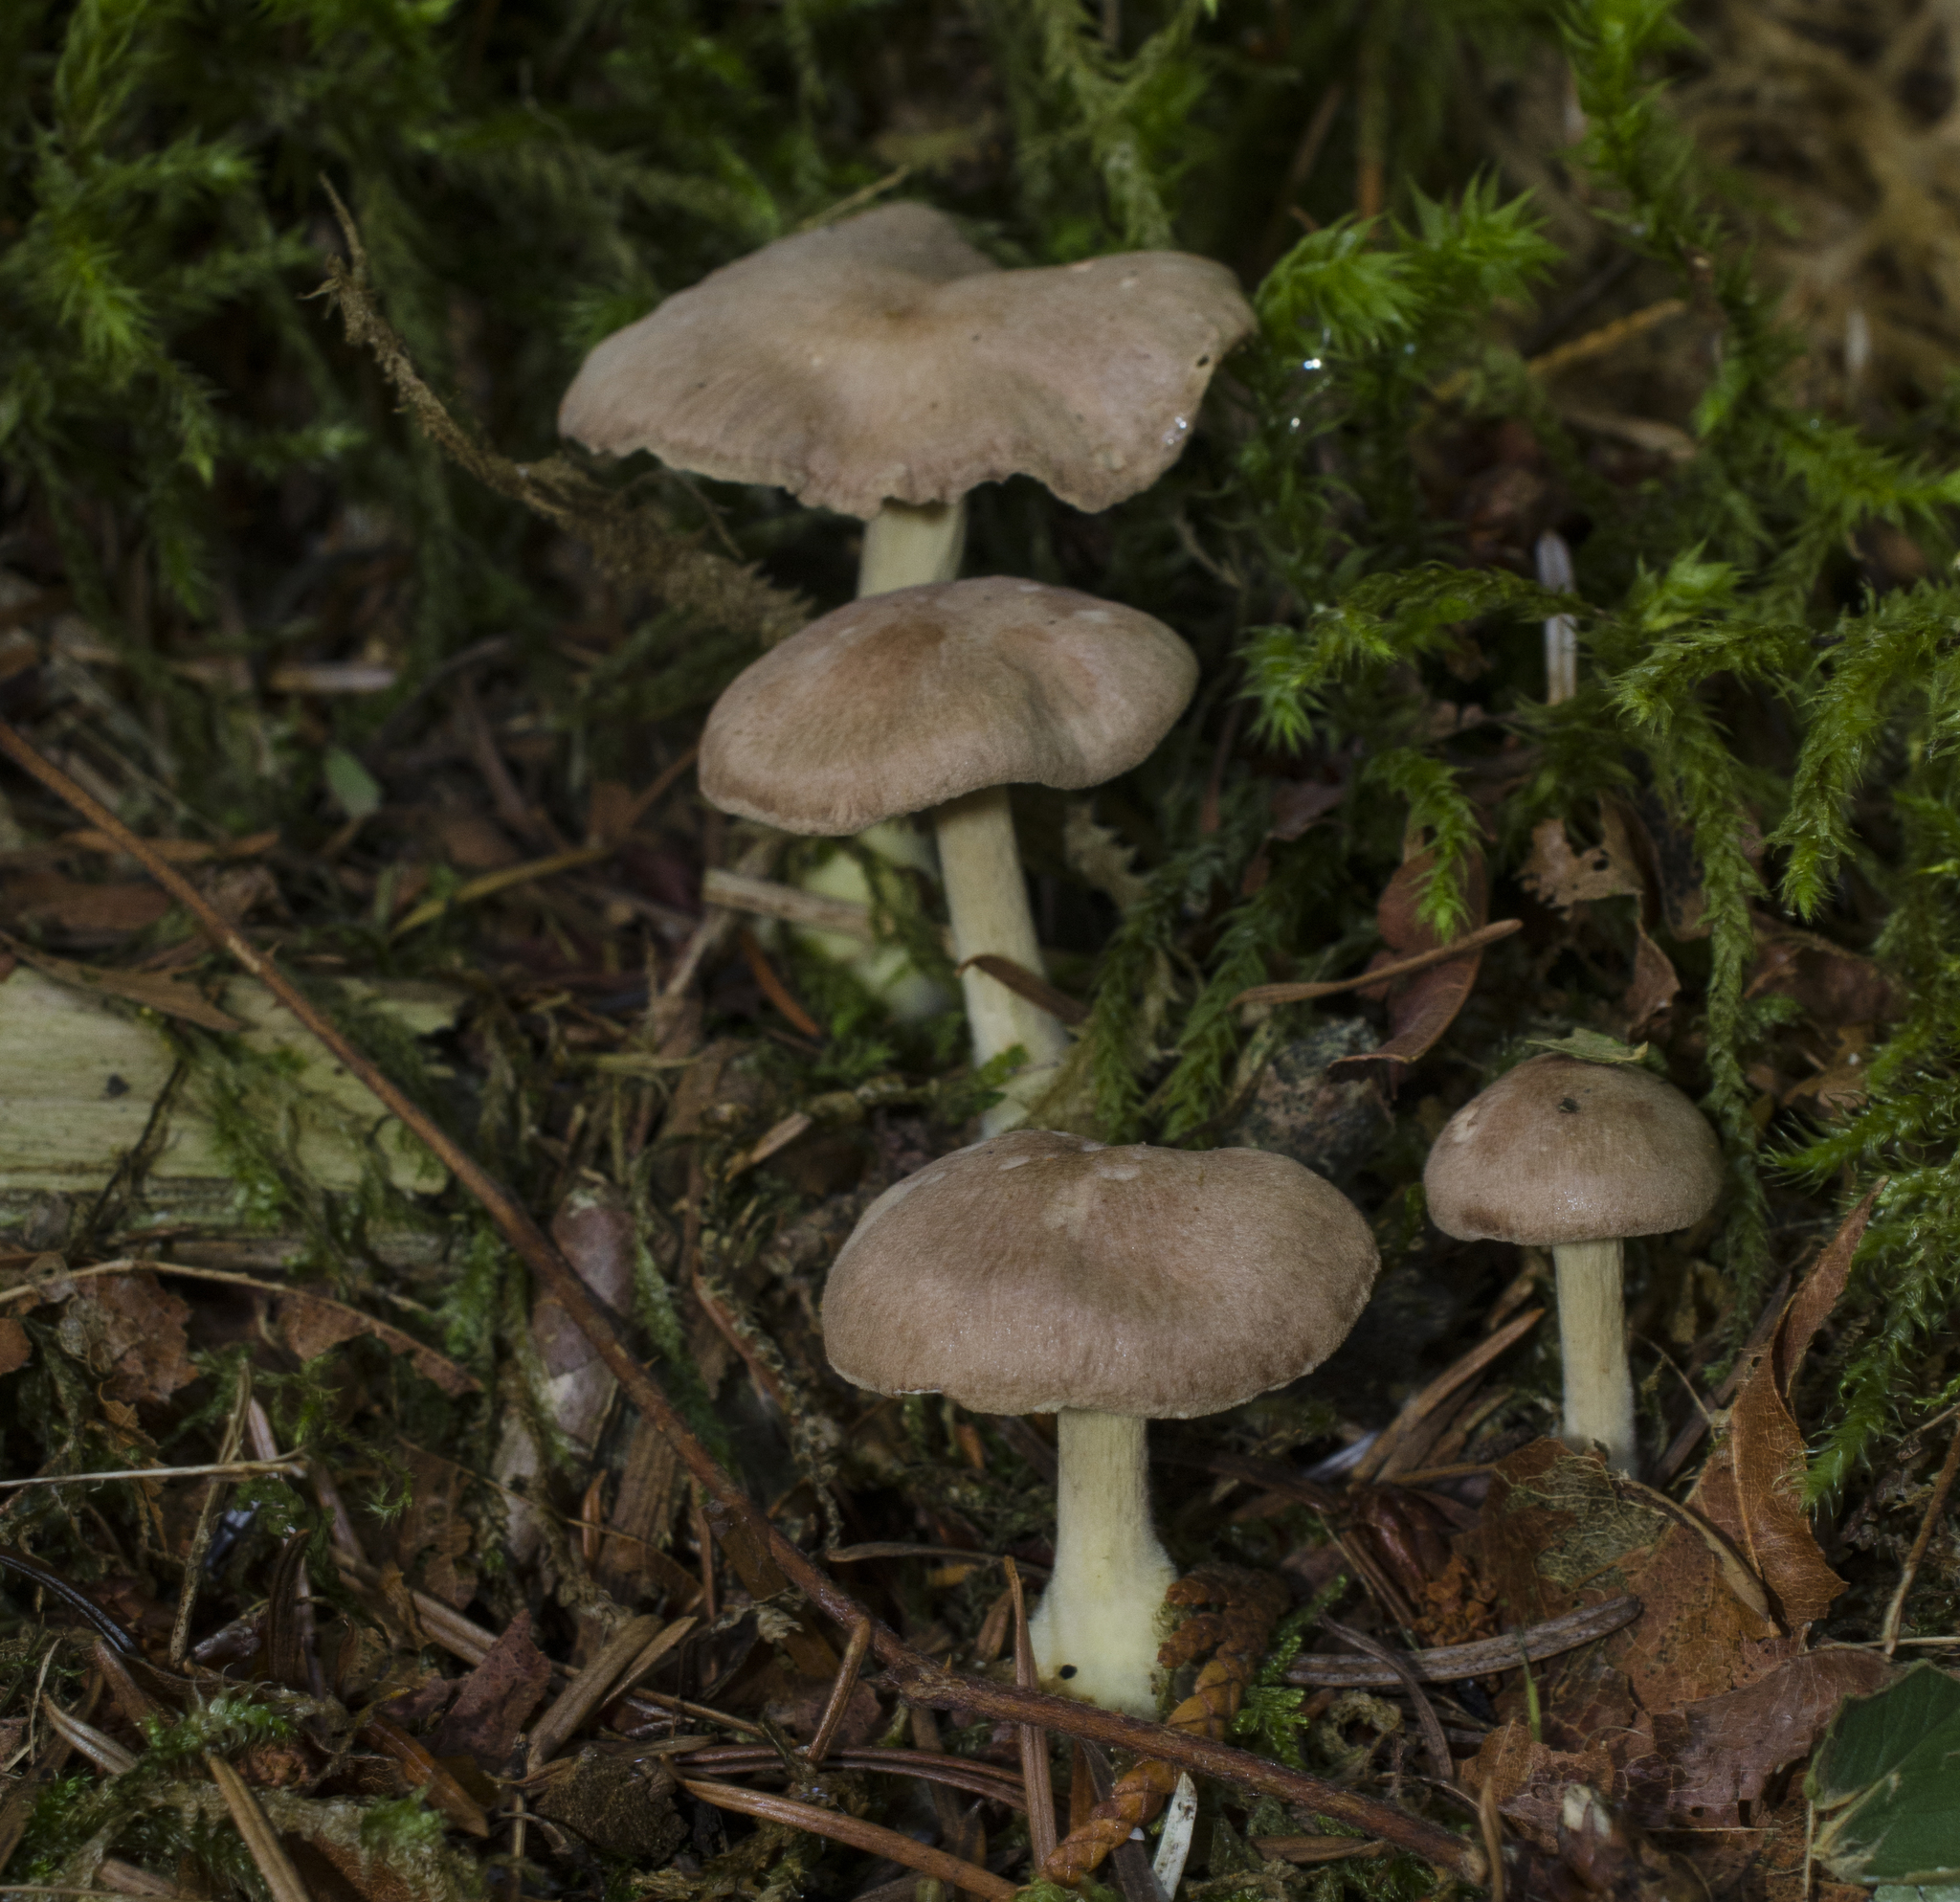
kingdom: Fungi
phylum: Basidiomycota
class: Agaricomycetes
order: Agaricales
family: Omphalotaceae
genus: Collybiopsis
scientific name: Collybiopsis peronata
